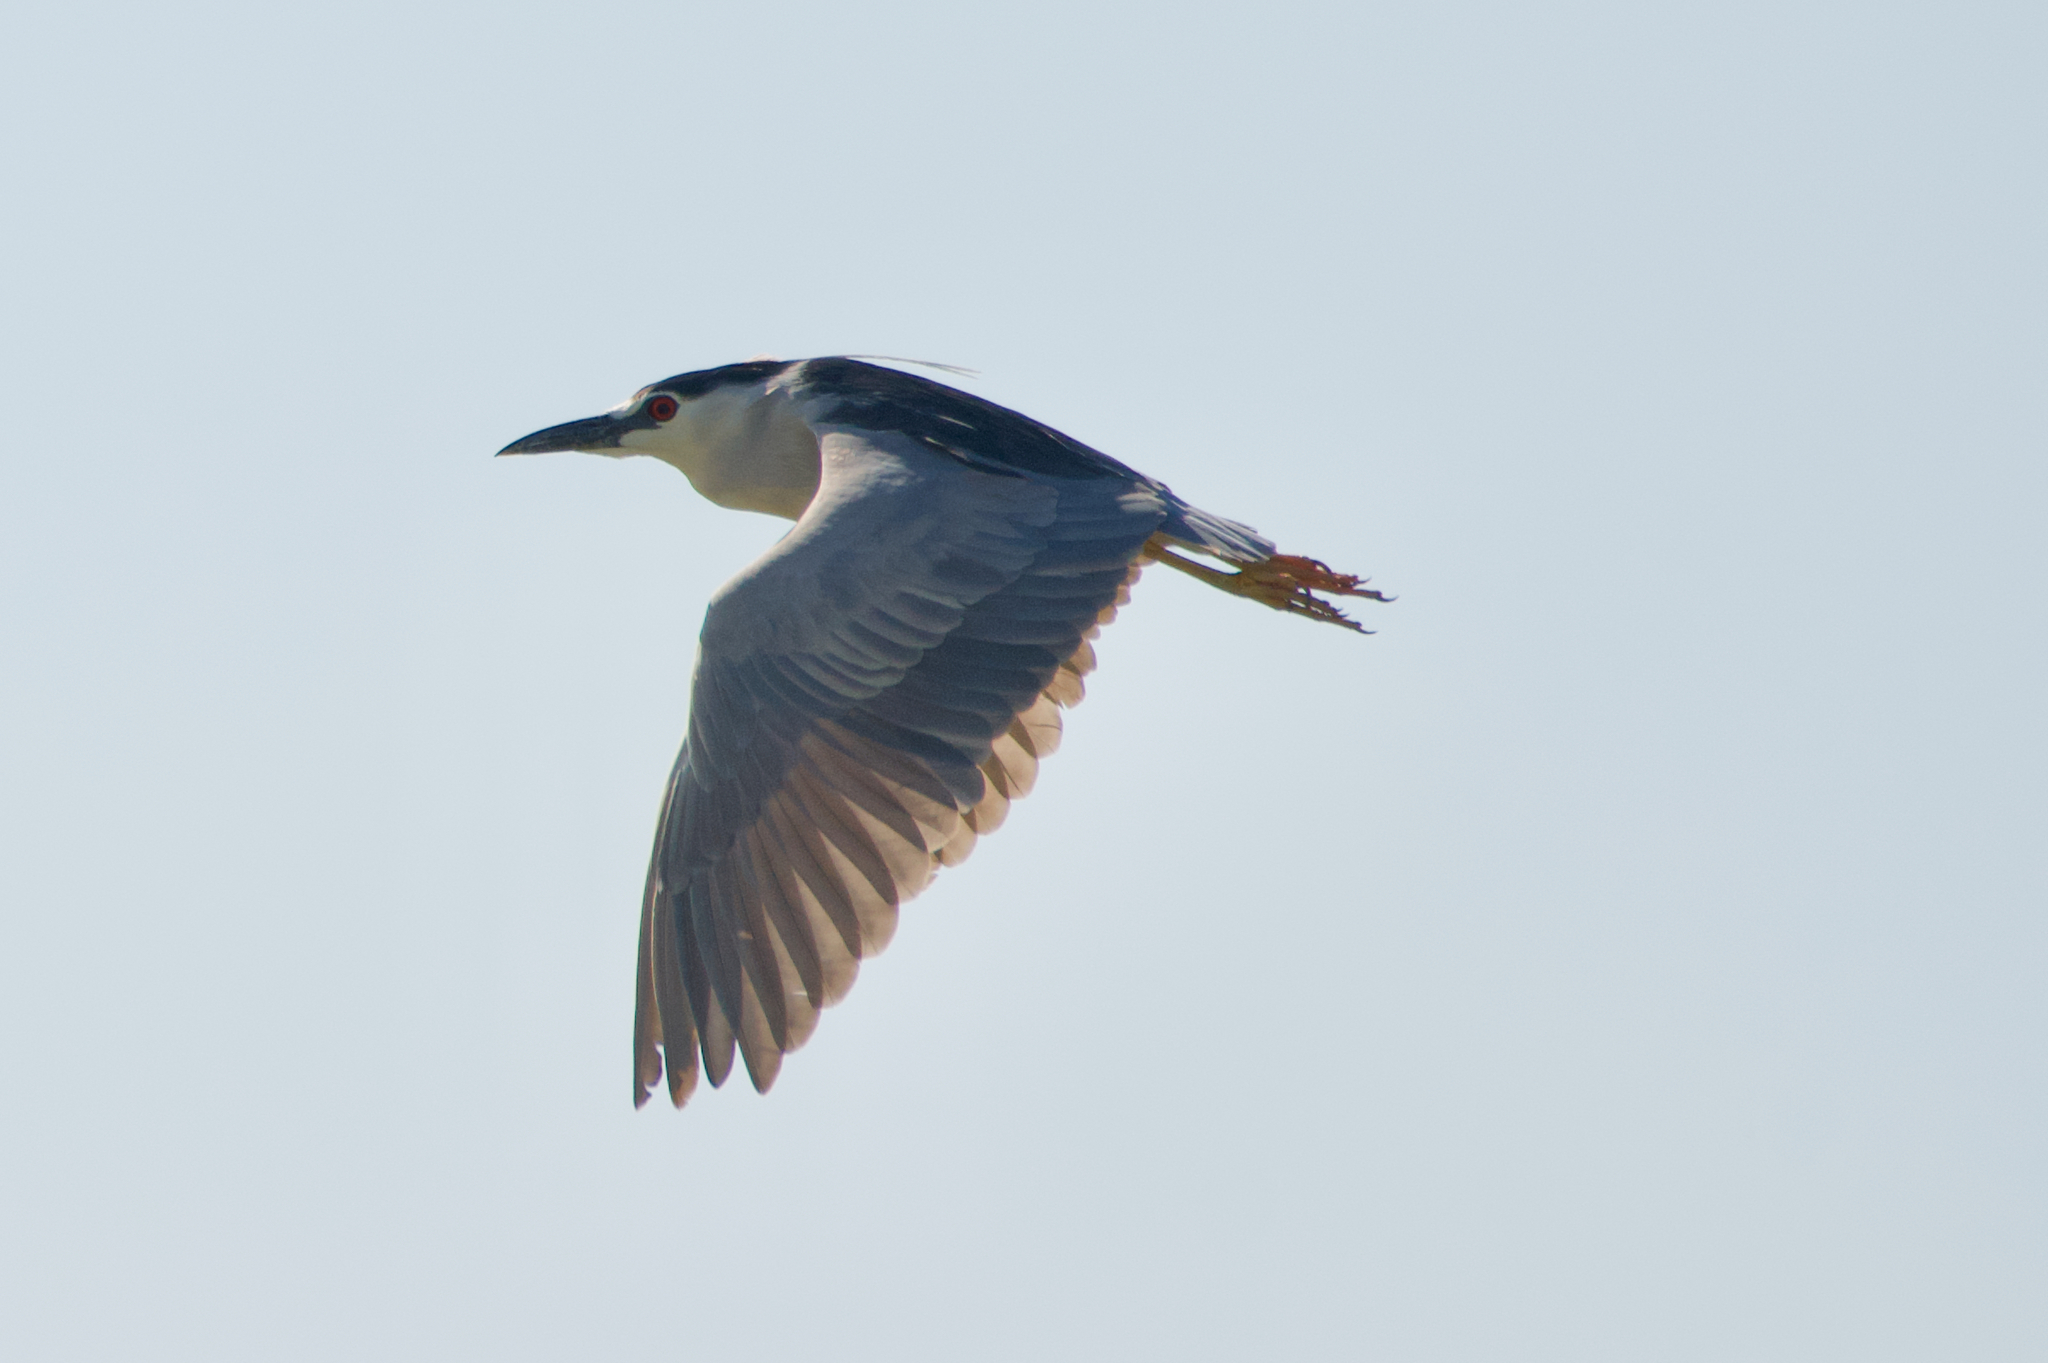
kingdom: Animalia
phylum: Chordata
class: Aves
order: Pelecaniformes
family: Ardeidae
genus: Nycticorax
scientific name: Nycticorax nycticorax
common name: Black-crowned night heron
